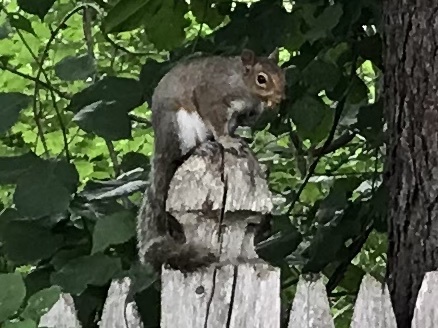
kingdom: Animalia
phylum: Chordata
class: Mammalia
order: Rodentia
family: Sciuridae
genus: Sciurus
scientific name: Sciurus carolinensis
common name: Eastern gray squirrel
